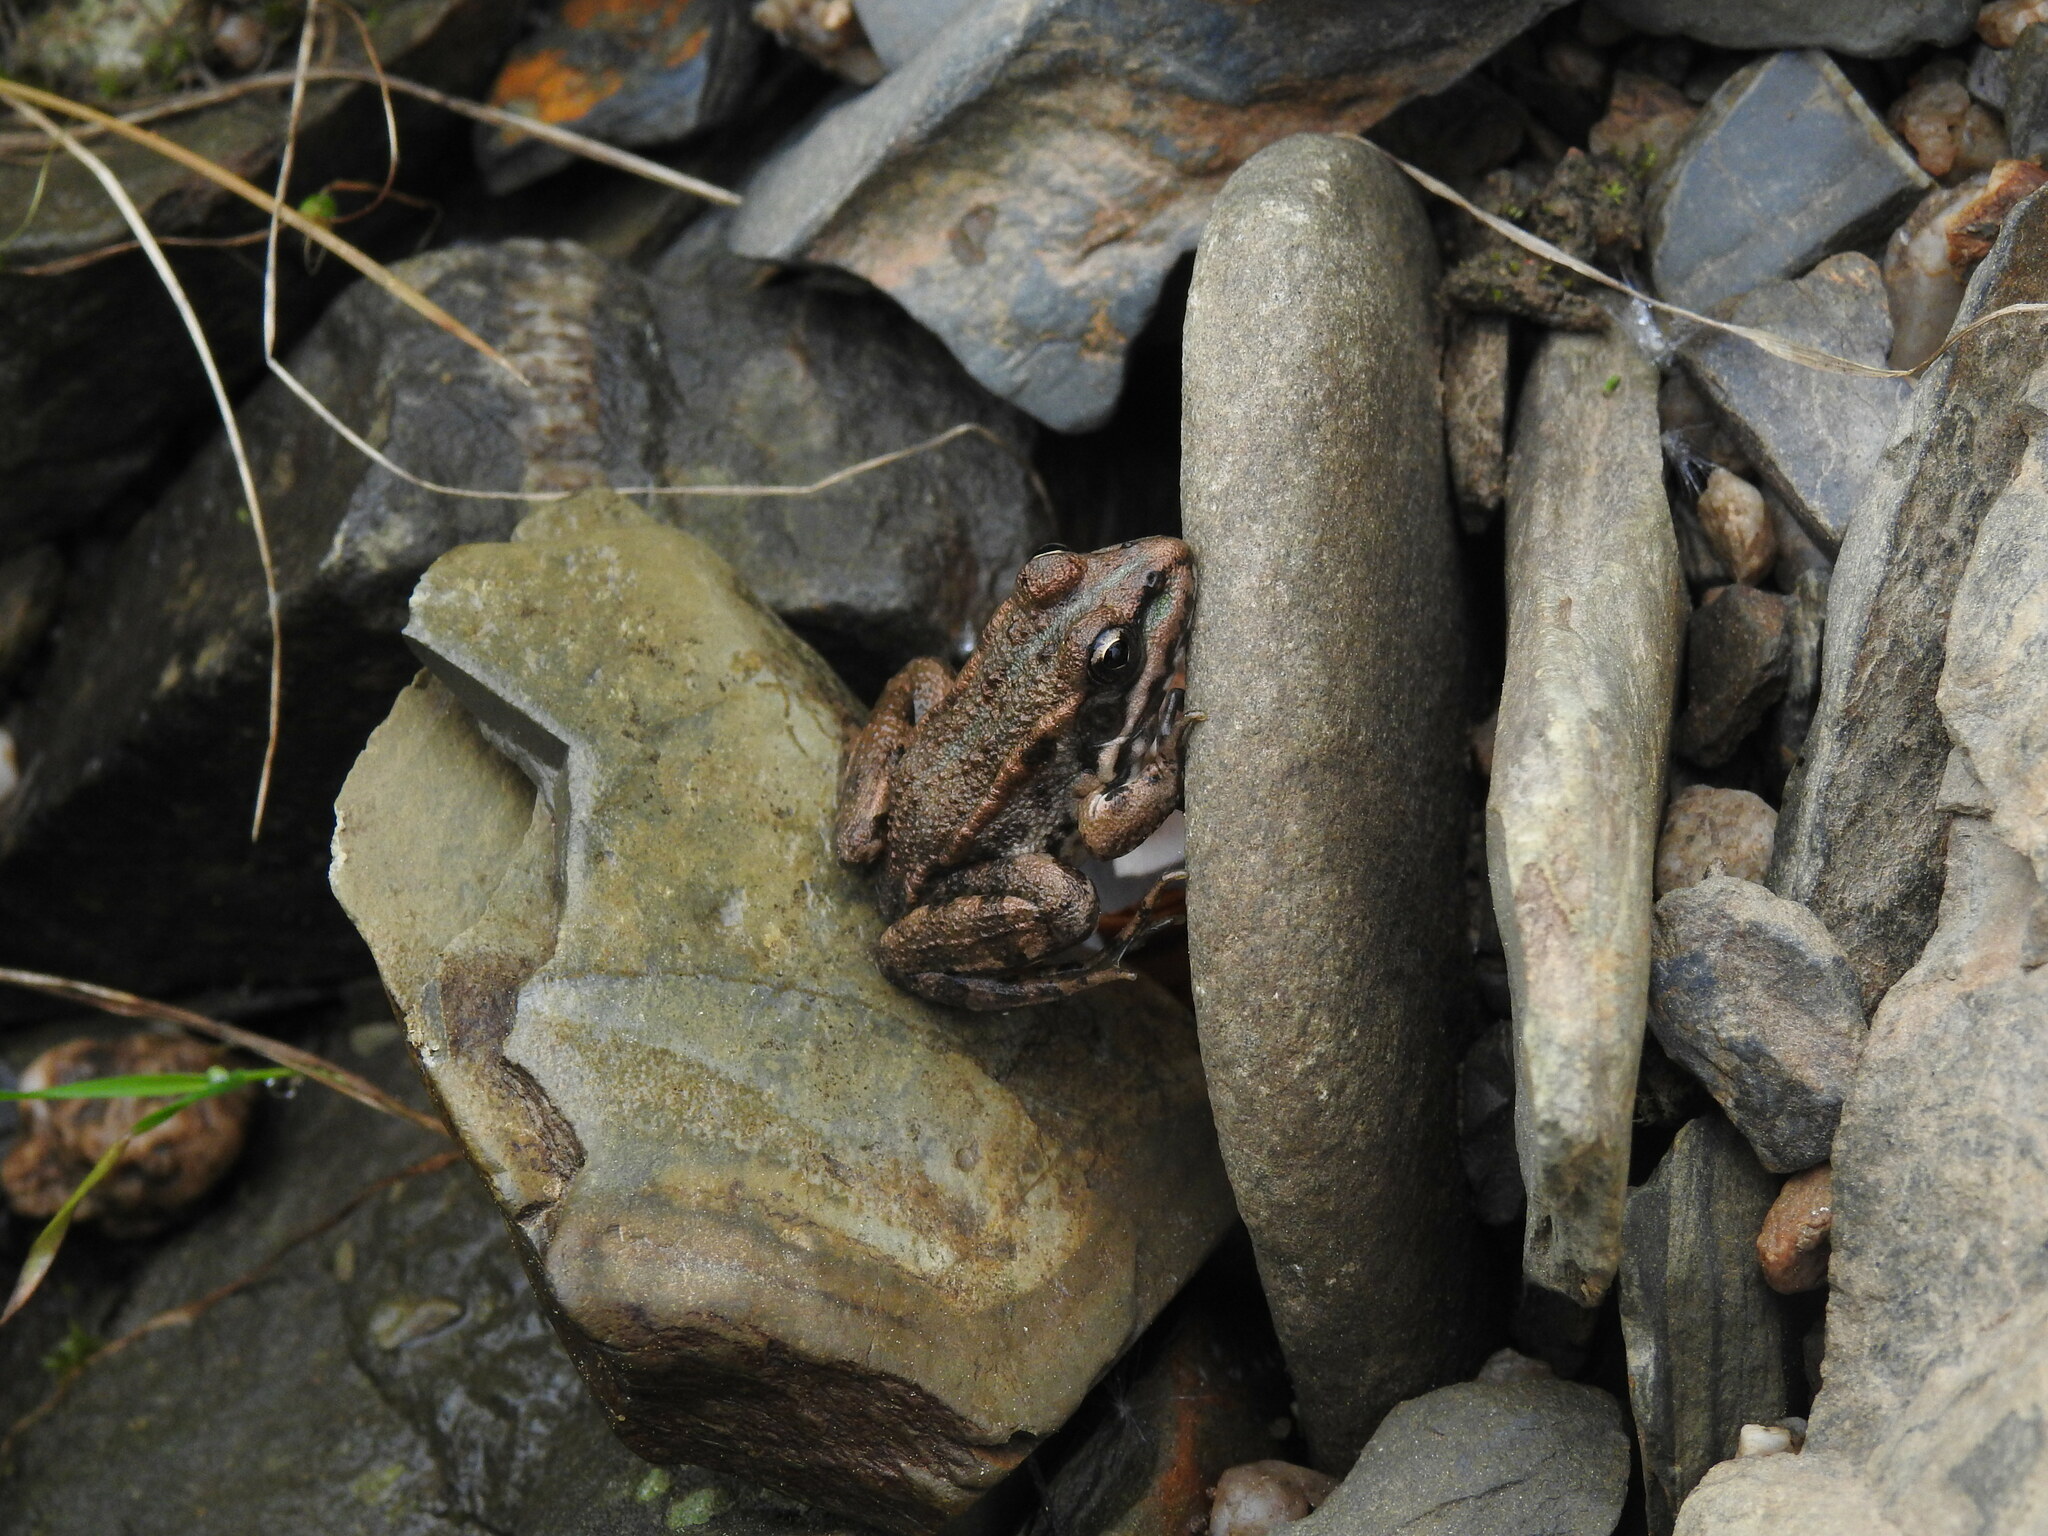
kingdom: Animalia
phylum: Chordata
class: Amphibia
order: Anura
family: Ranidae
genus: Pelophylax
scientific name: Pelophylax perezi
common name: Perez's frog
